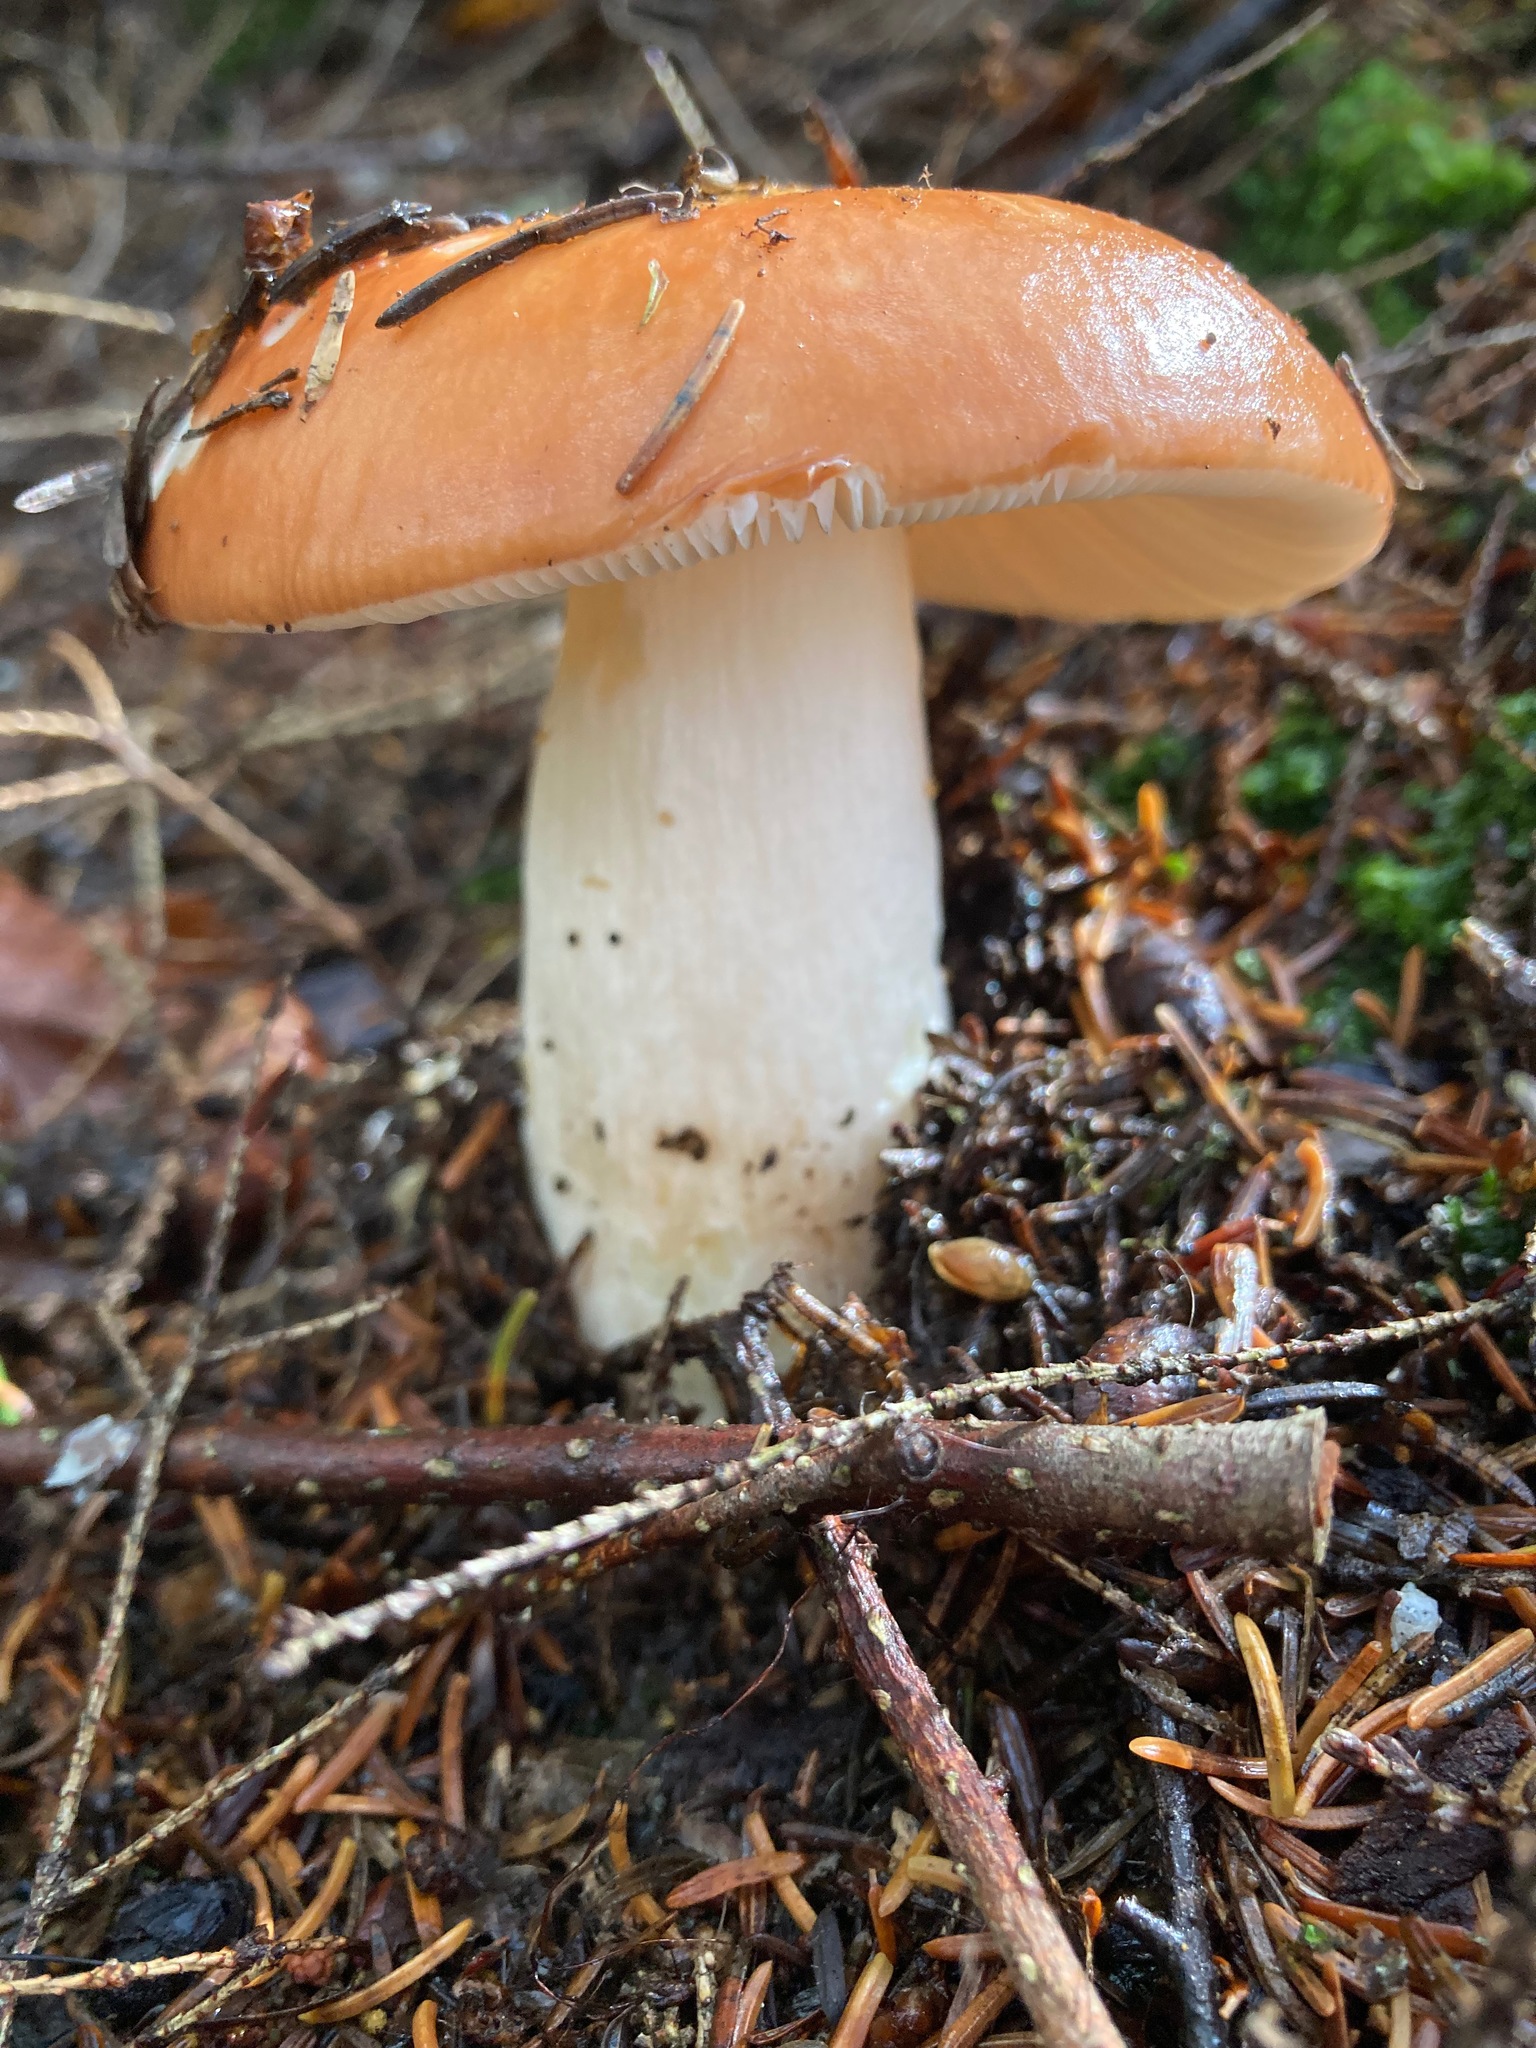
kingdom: Fungi
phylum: Basidiomycota
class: Agaricomycetes
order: Russulales
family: Russulaceae
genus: Russula
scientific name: Russula decolorans
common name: Copper brittlegill
